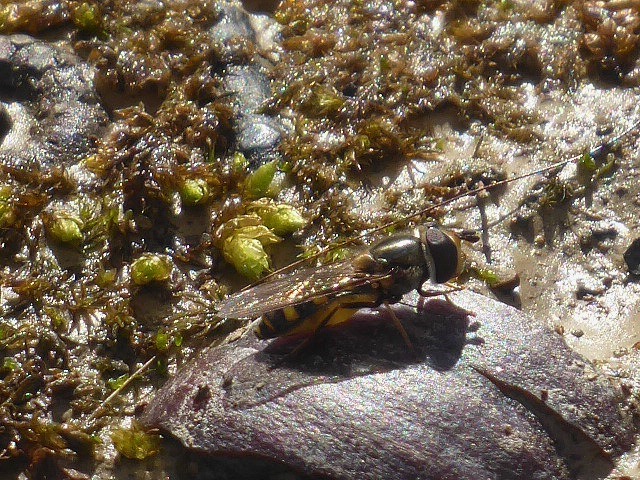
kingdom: Animalia
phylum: Arthropoda
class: Insecta
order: Diptera
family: Syrphidae
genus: Eupeodes
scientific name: Eupeodes
